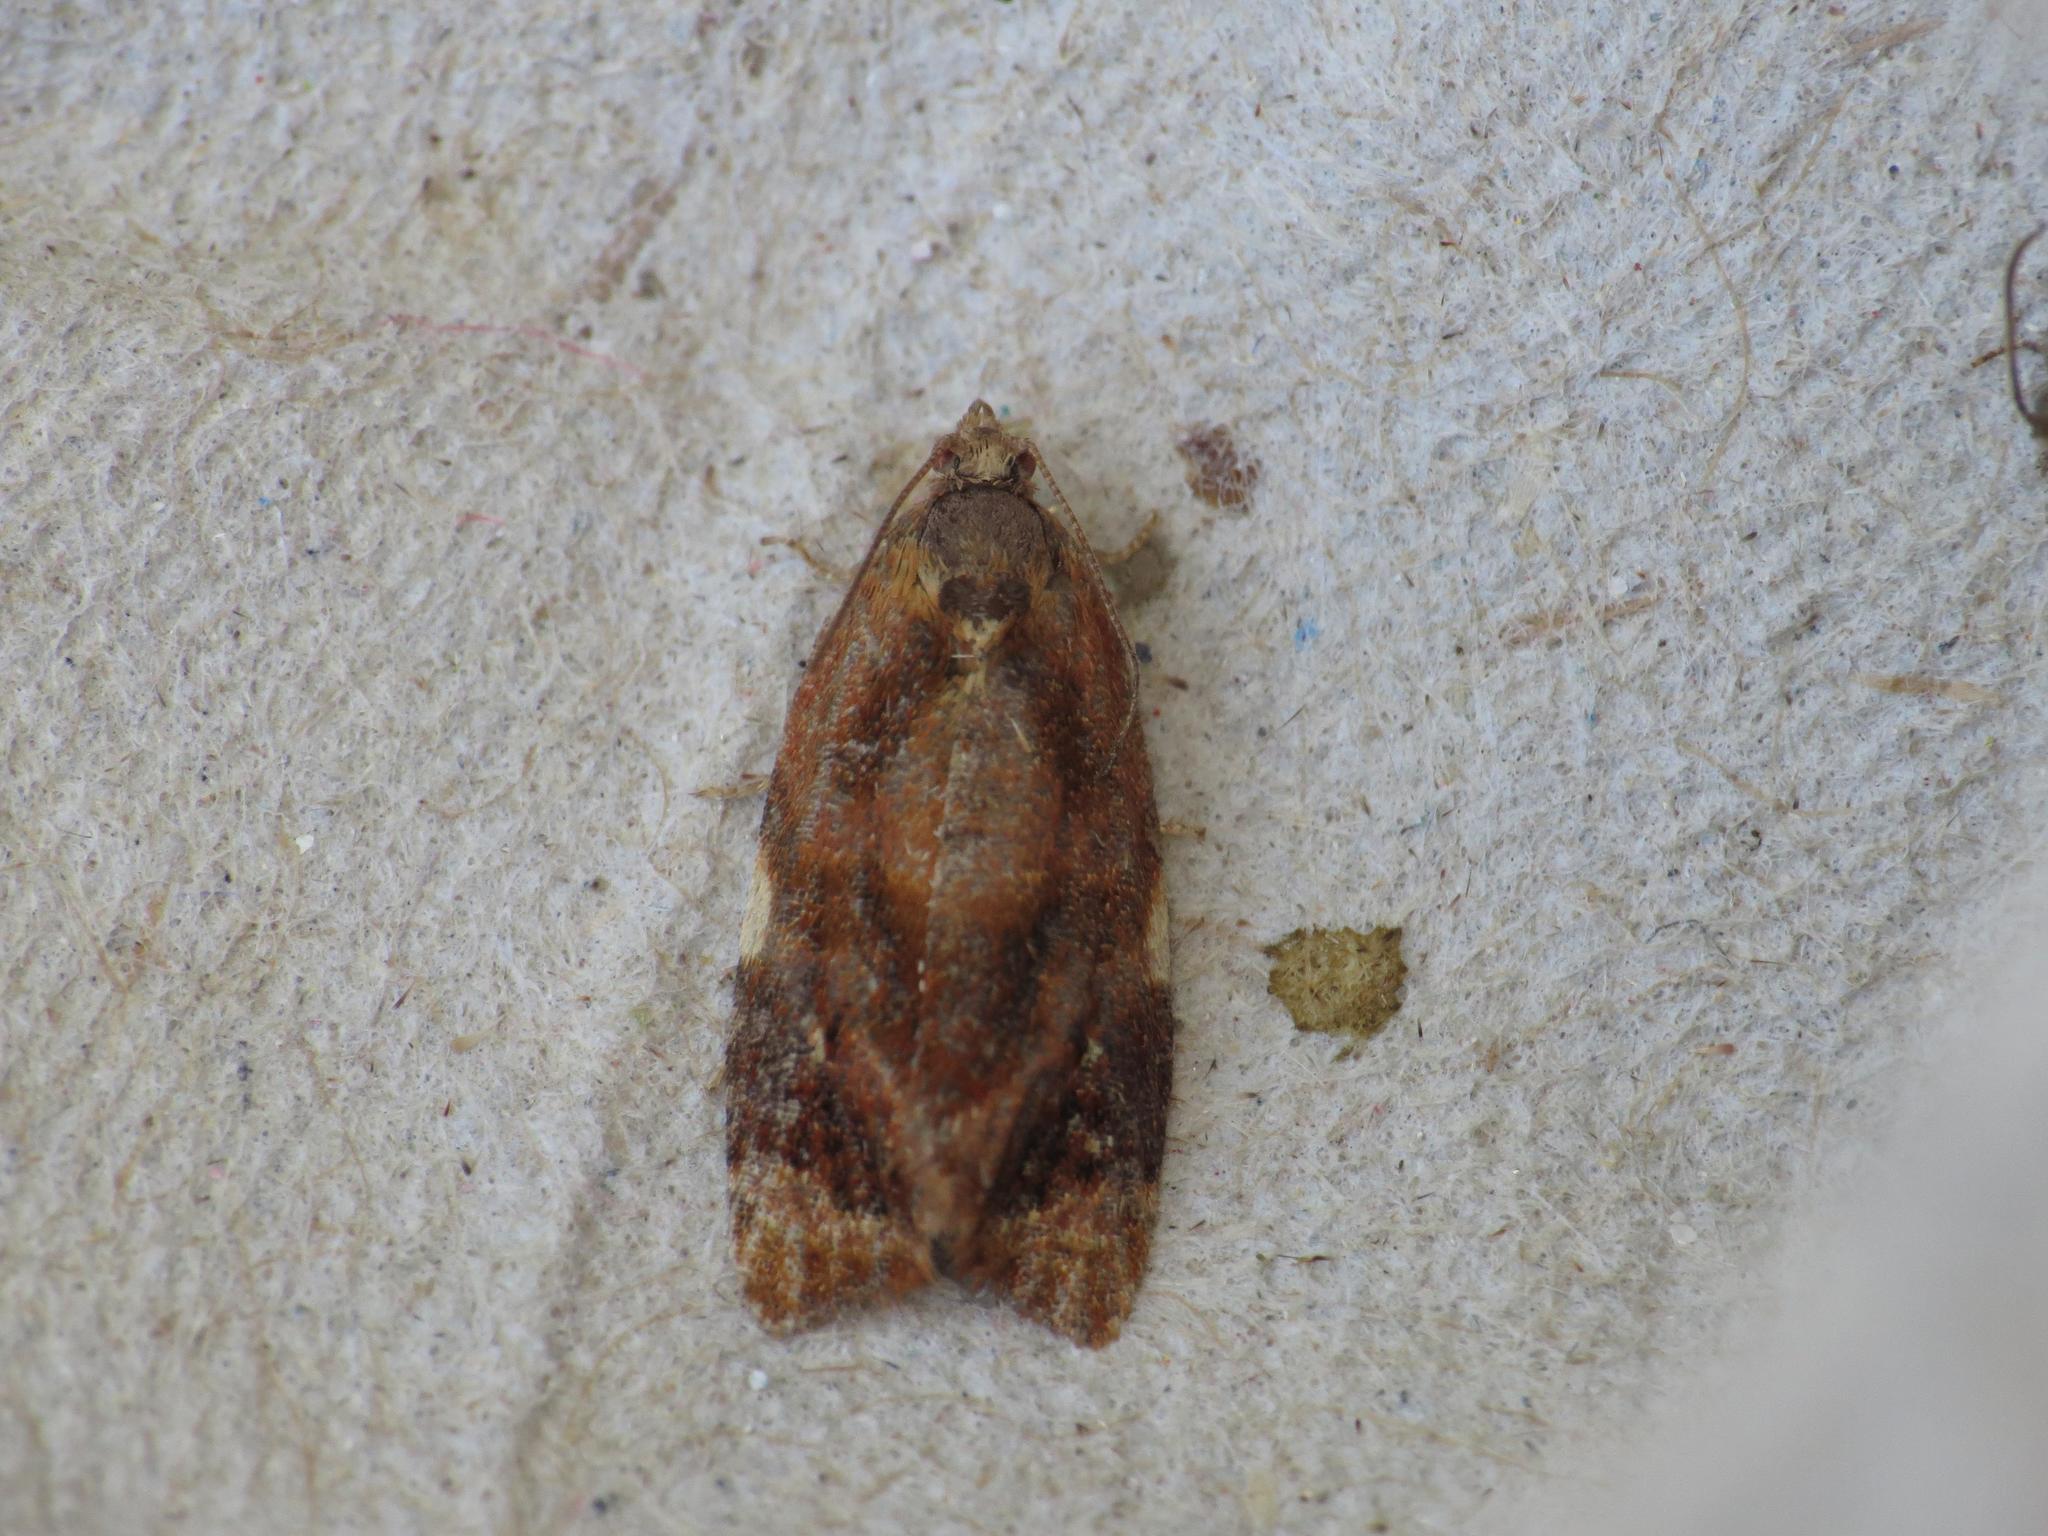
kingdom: Animalia
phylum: Arthropoda
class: Insecta
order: Lepidoptera
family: Tortricidae
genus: Ditula
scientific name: Ditula angustiorana
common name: Red-barred tortrix
